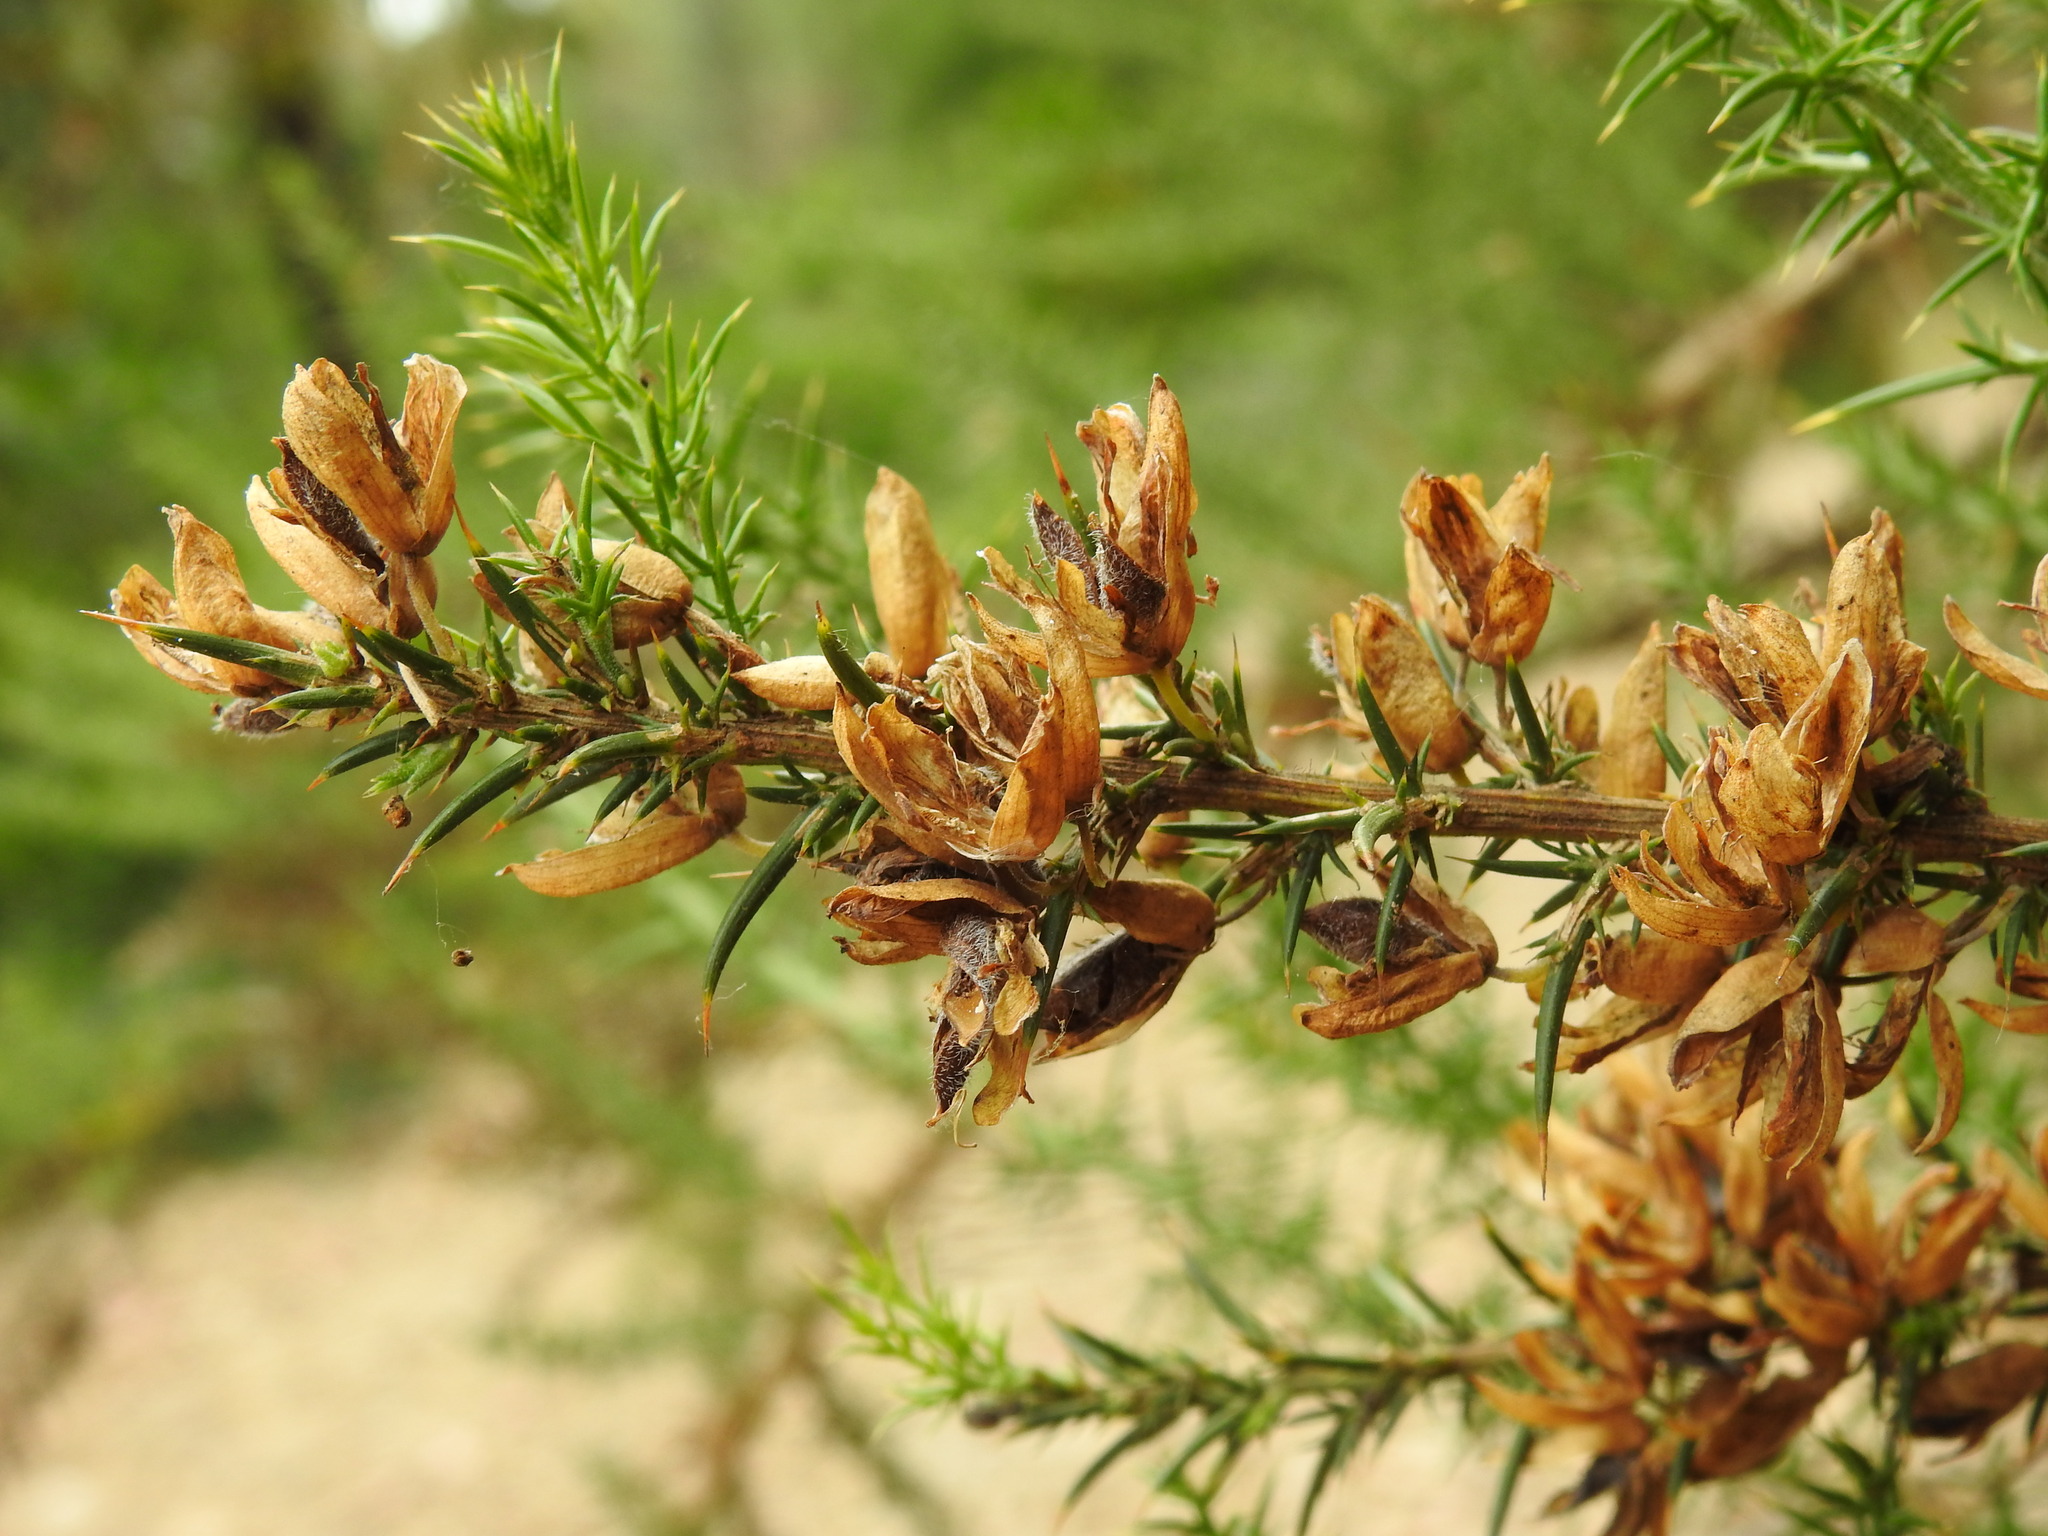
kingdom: Plantae
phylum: Tracheophyta
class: Magnoliopsida
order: Fabales
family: Fabaceae
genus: Ulex
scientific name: Ulex jussiaei
